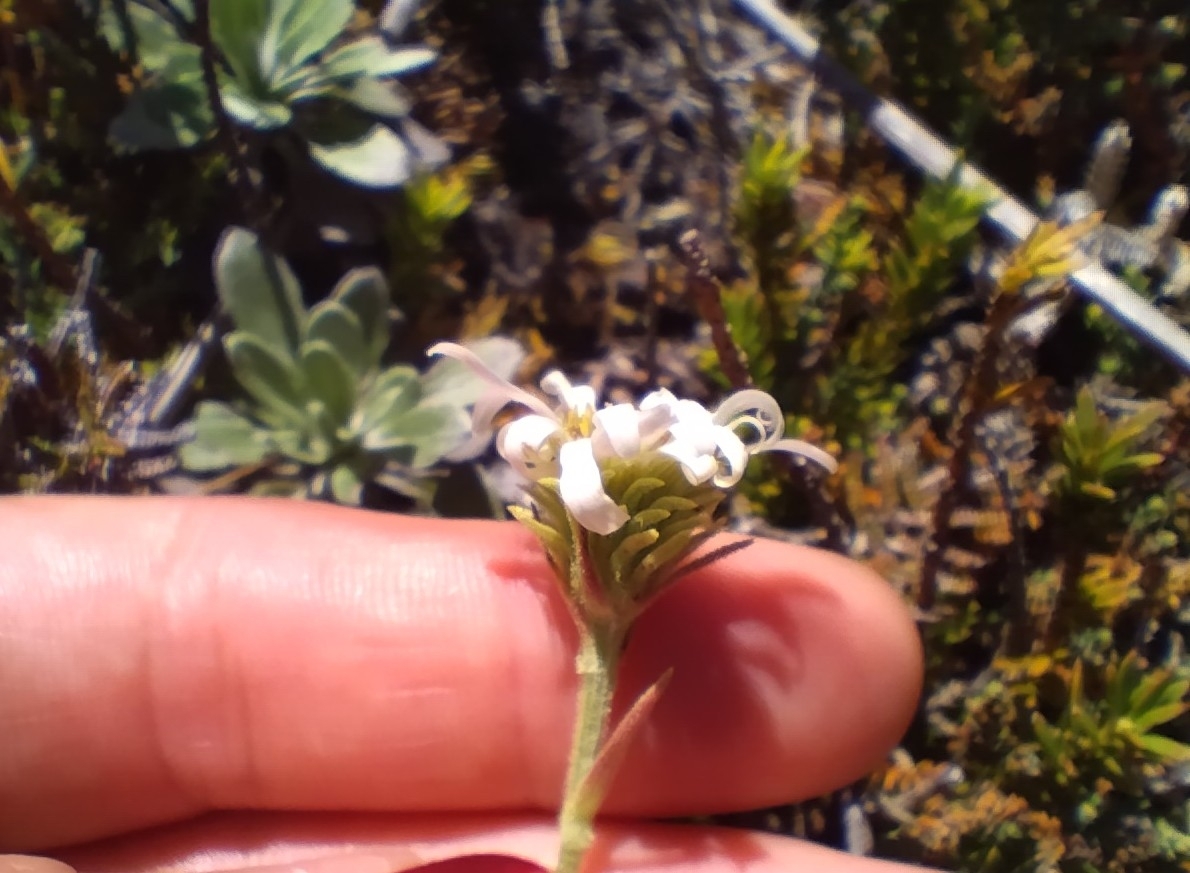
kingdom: Plantae
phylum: Tracheophyta
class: Magnoliopsida
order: Asterales
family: Asteraceae
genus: Celmisia
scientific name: Celmisia discolor
